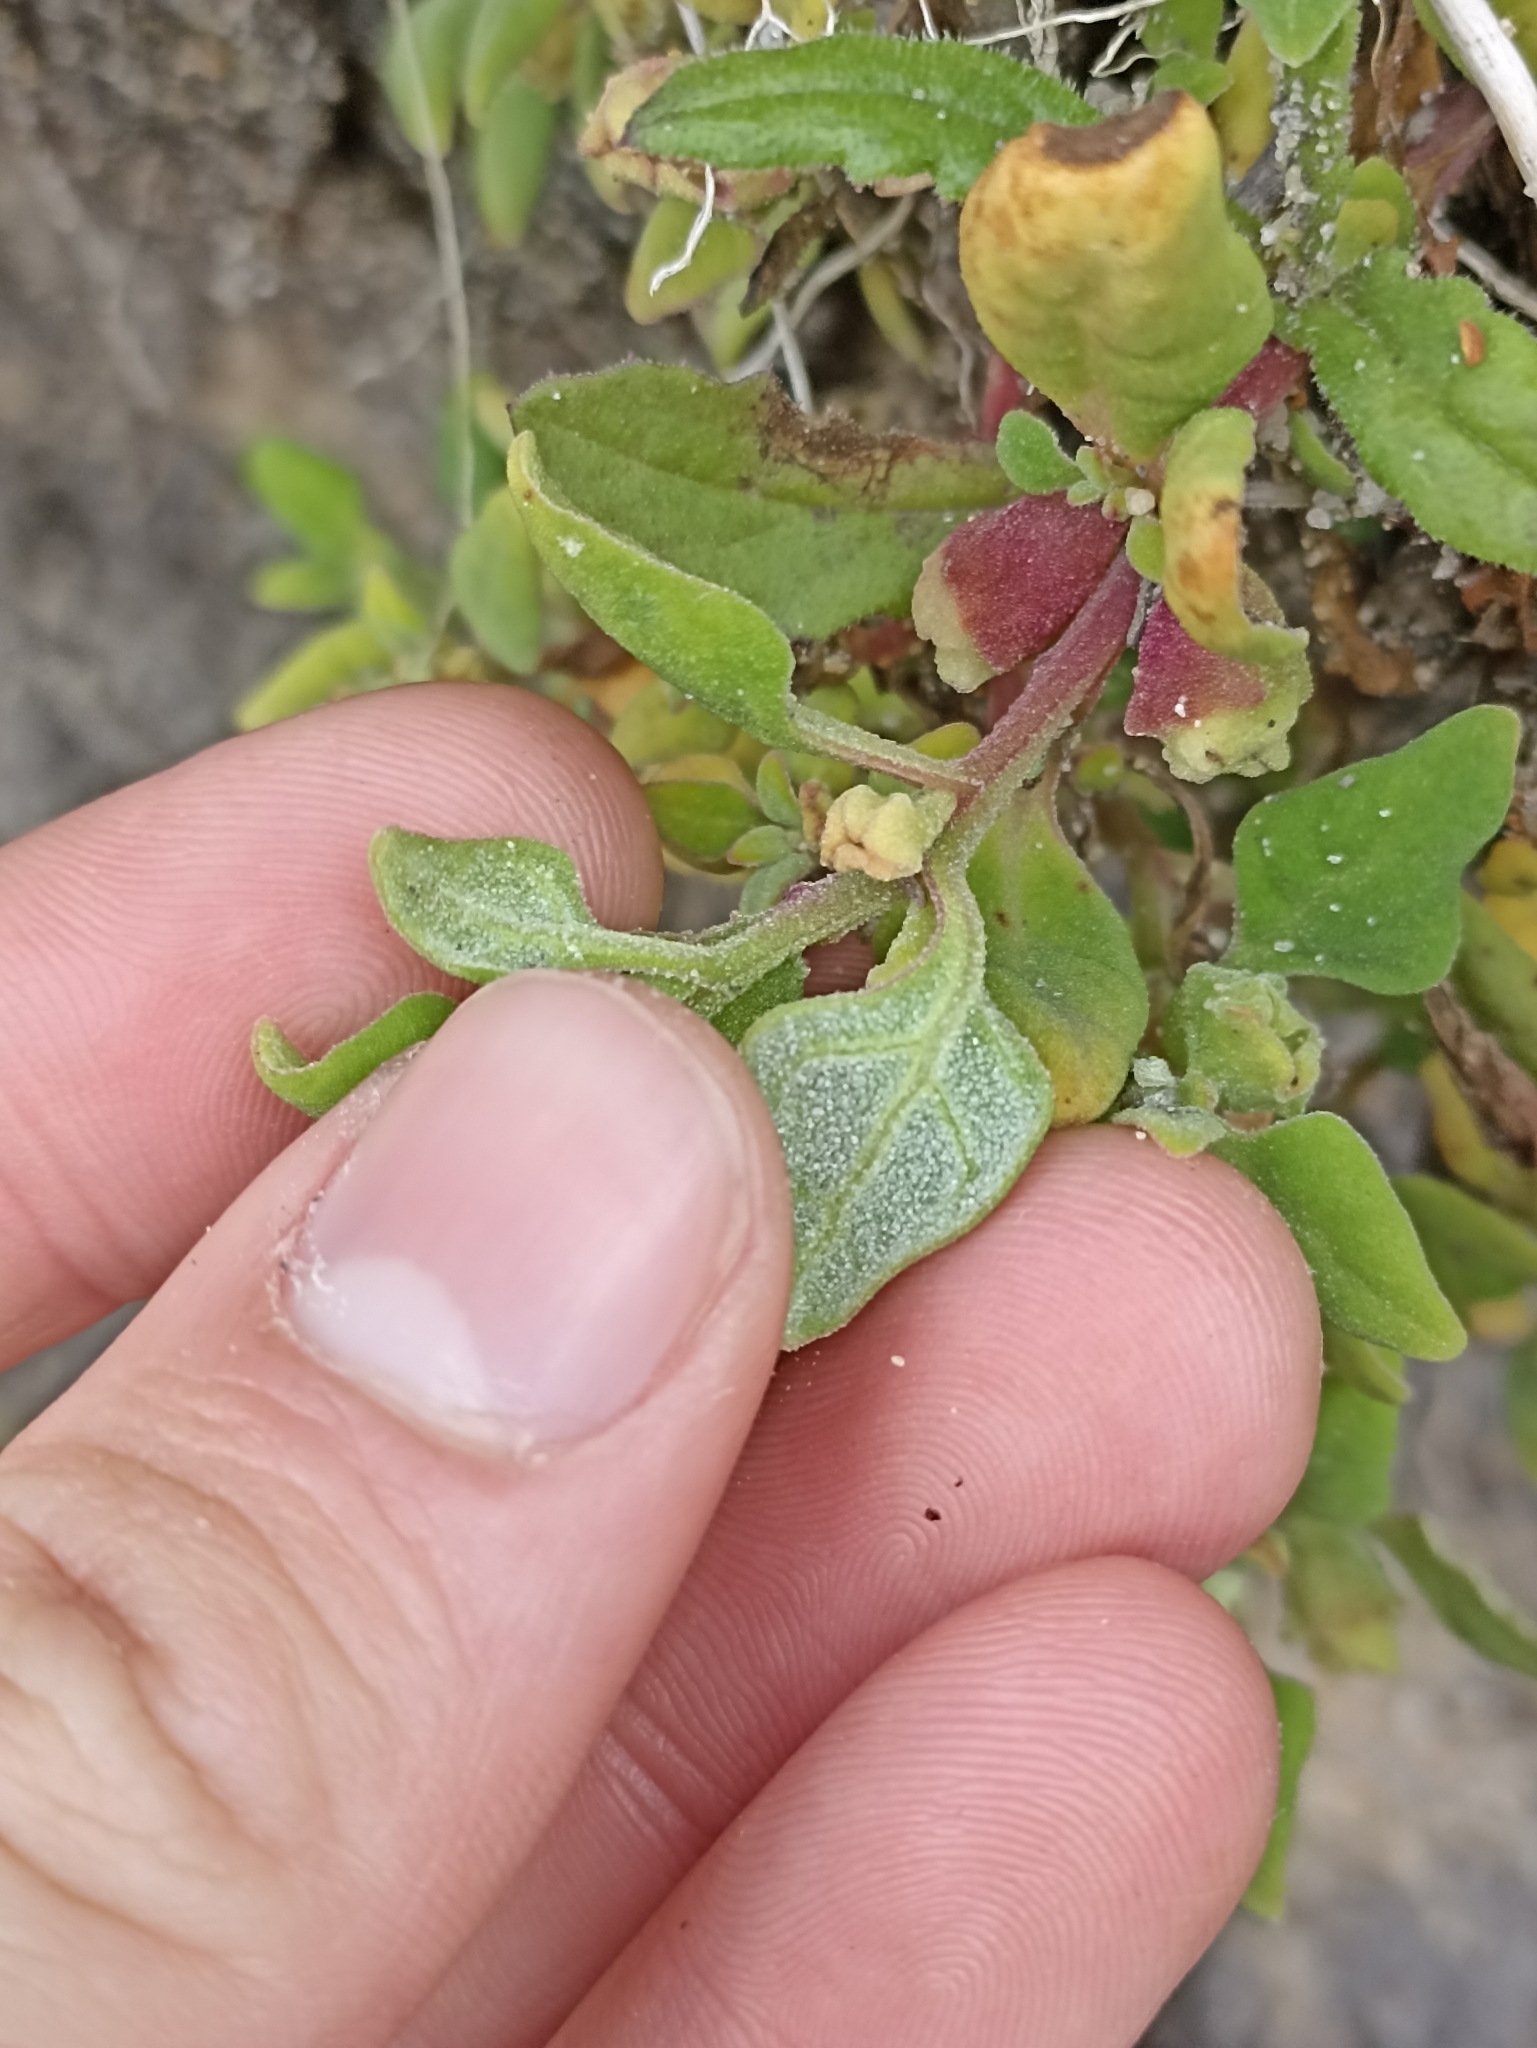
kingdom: Plantae
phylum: Tracheophyta
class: Magnoliopsida
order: Caryophyllales
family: Aizoaceae
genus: Tetragonia
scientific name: Tetragonia implexicoma
